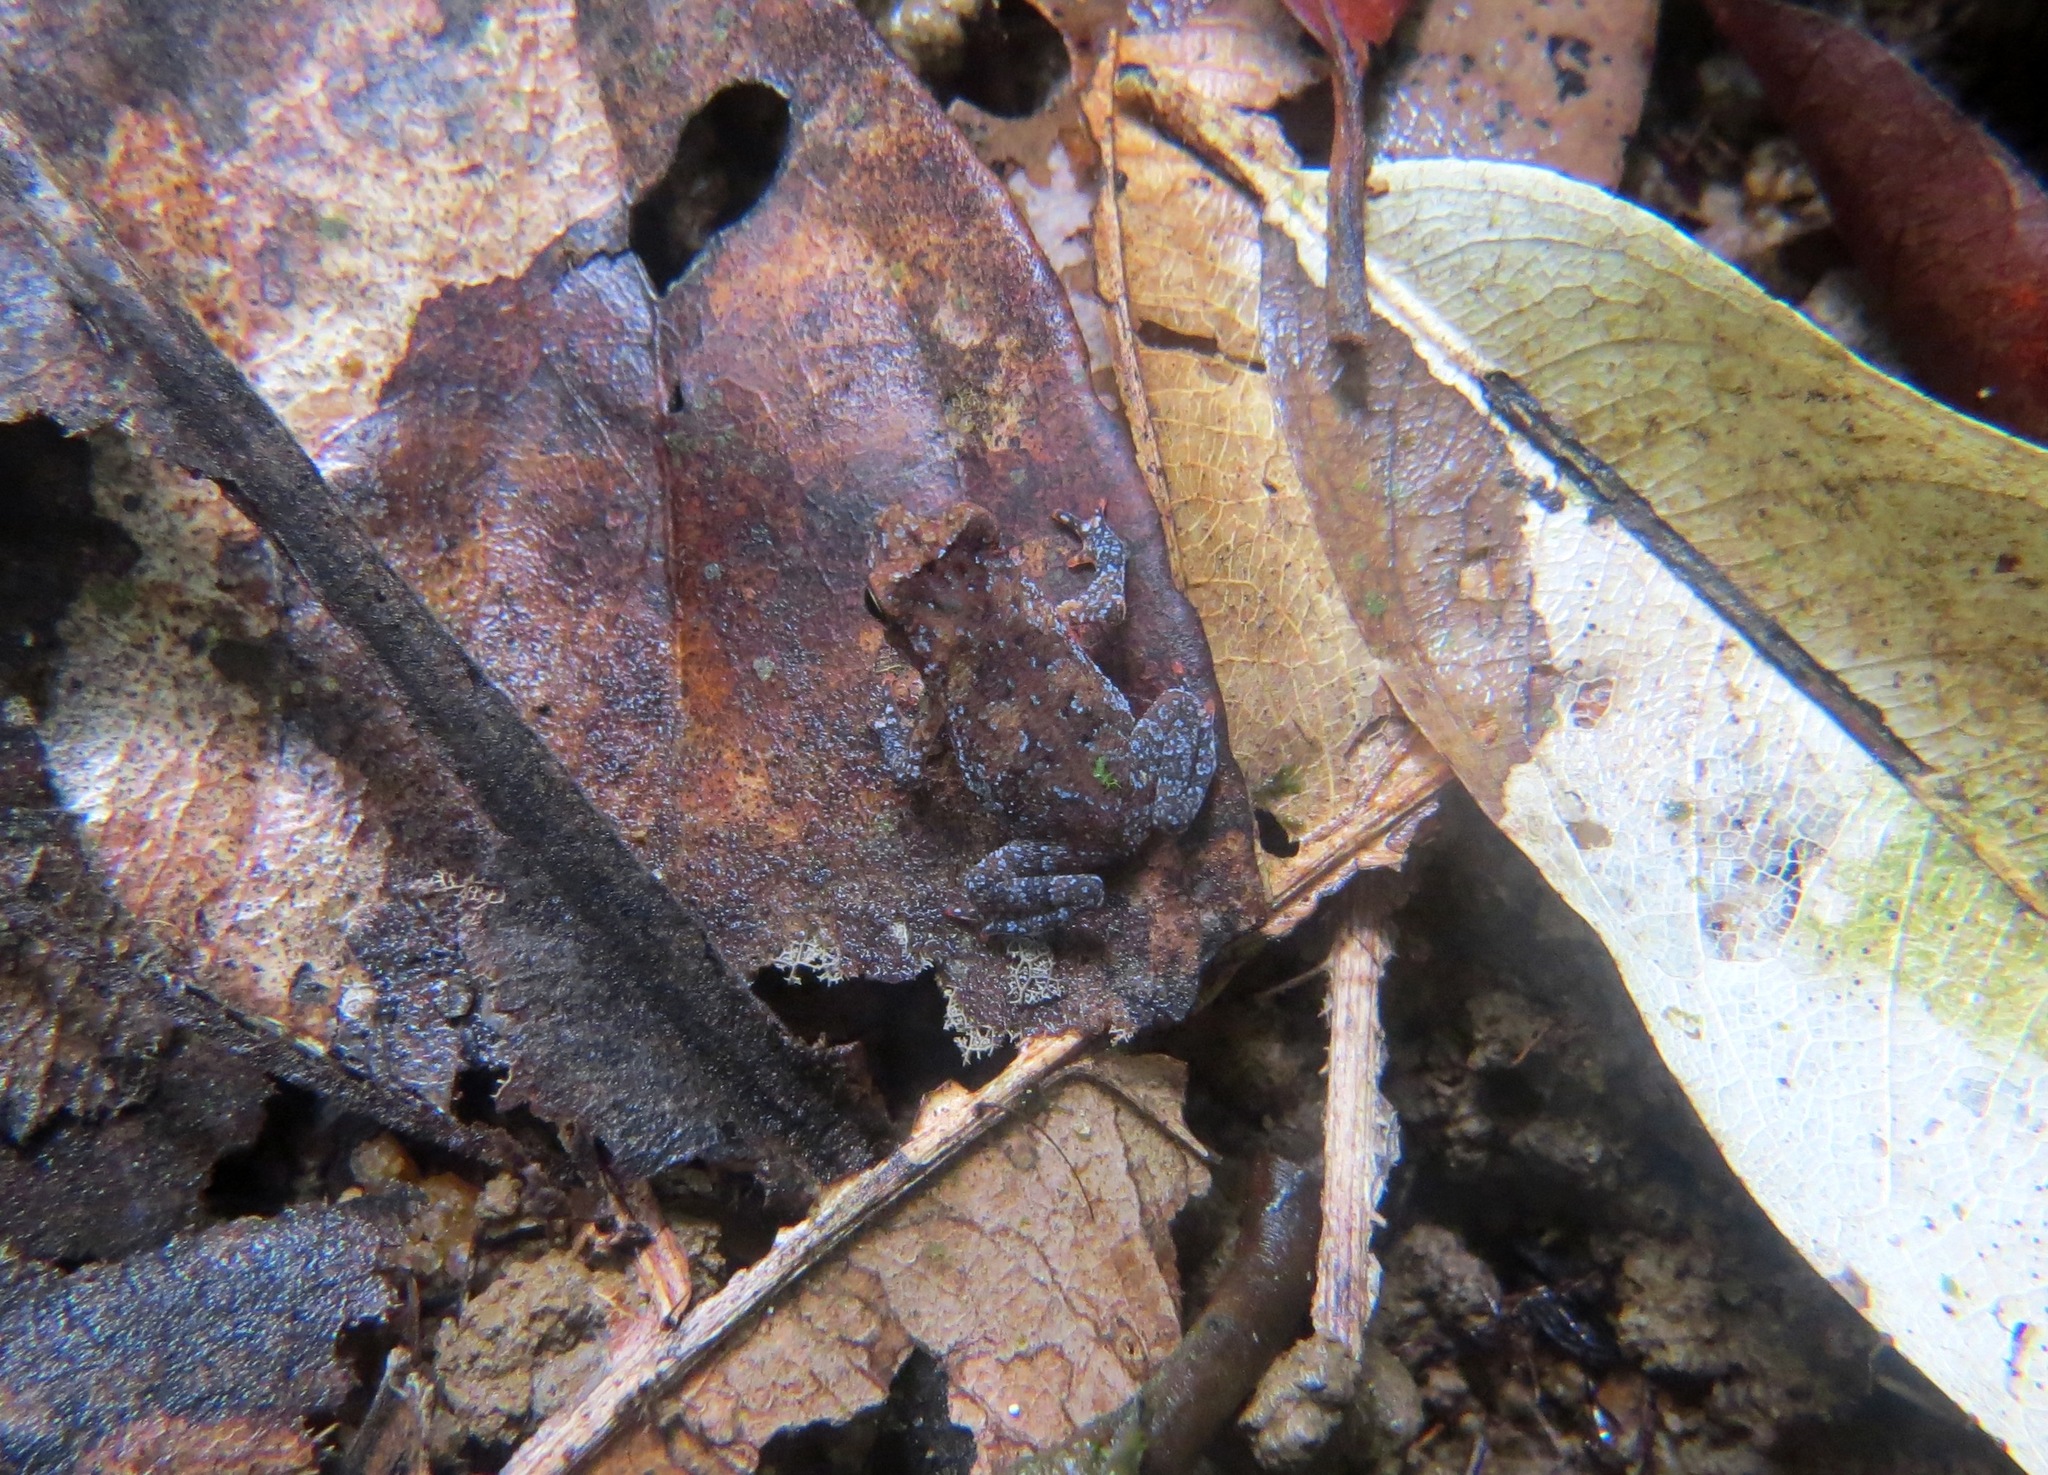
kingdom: Animalia
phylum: Chordata
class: Amphibia
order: Anura
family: Bufonidae
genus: Rhinella
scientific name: Rhinella margaritifera
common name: Mitred toad
